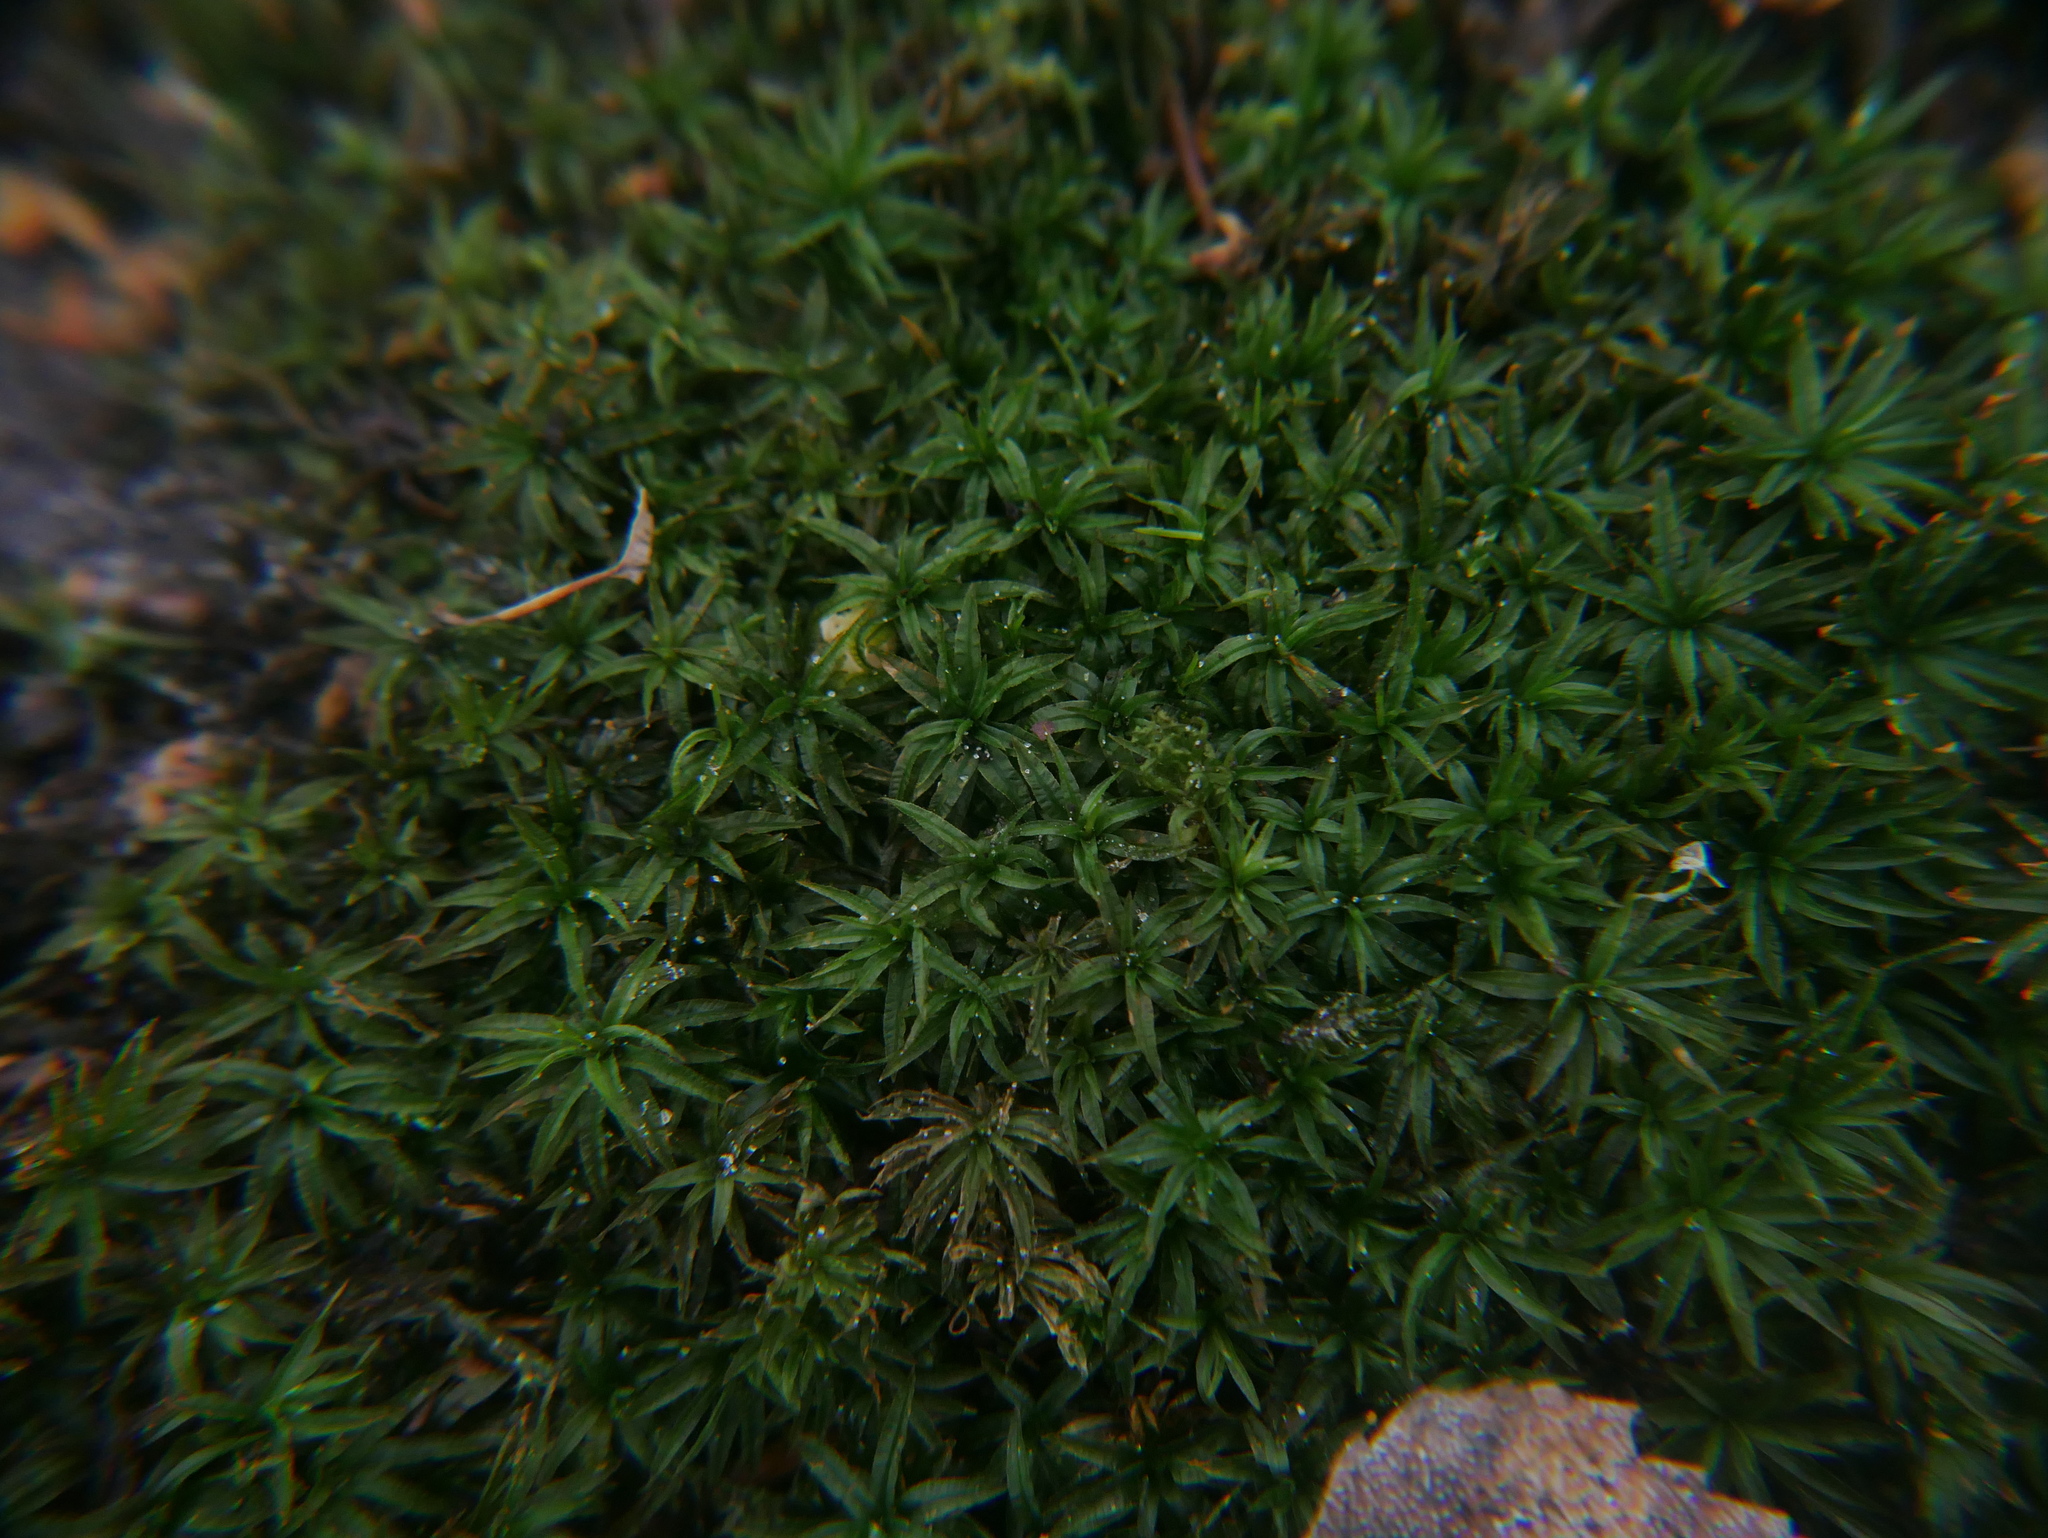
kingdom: Plantae
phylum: Bryophyta
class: Polytrichopsida
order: Polytrichales
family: Polytrichaceae
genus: Atrichum
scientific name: Atrichum undulatum
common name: Common smoothcap
